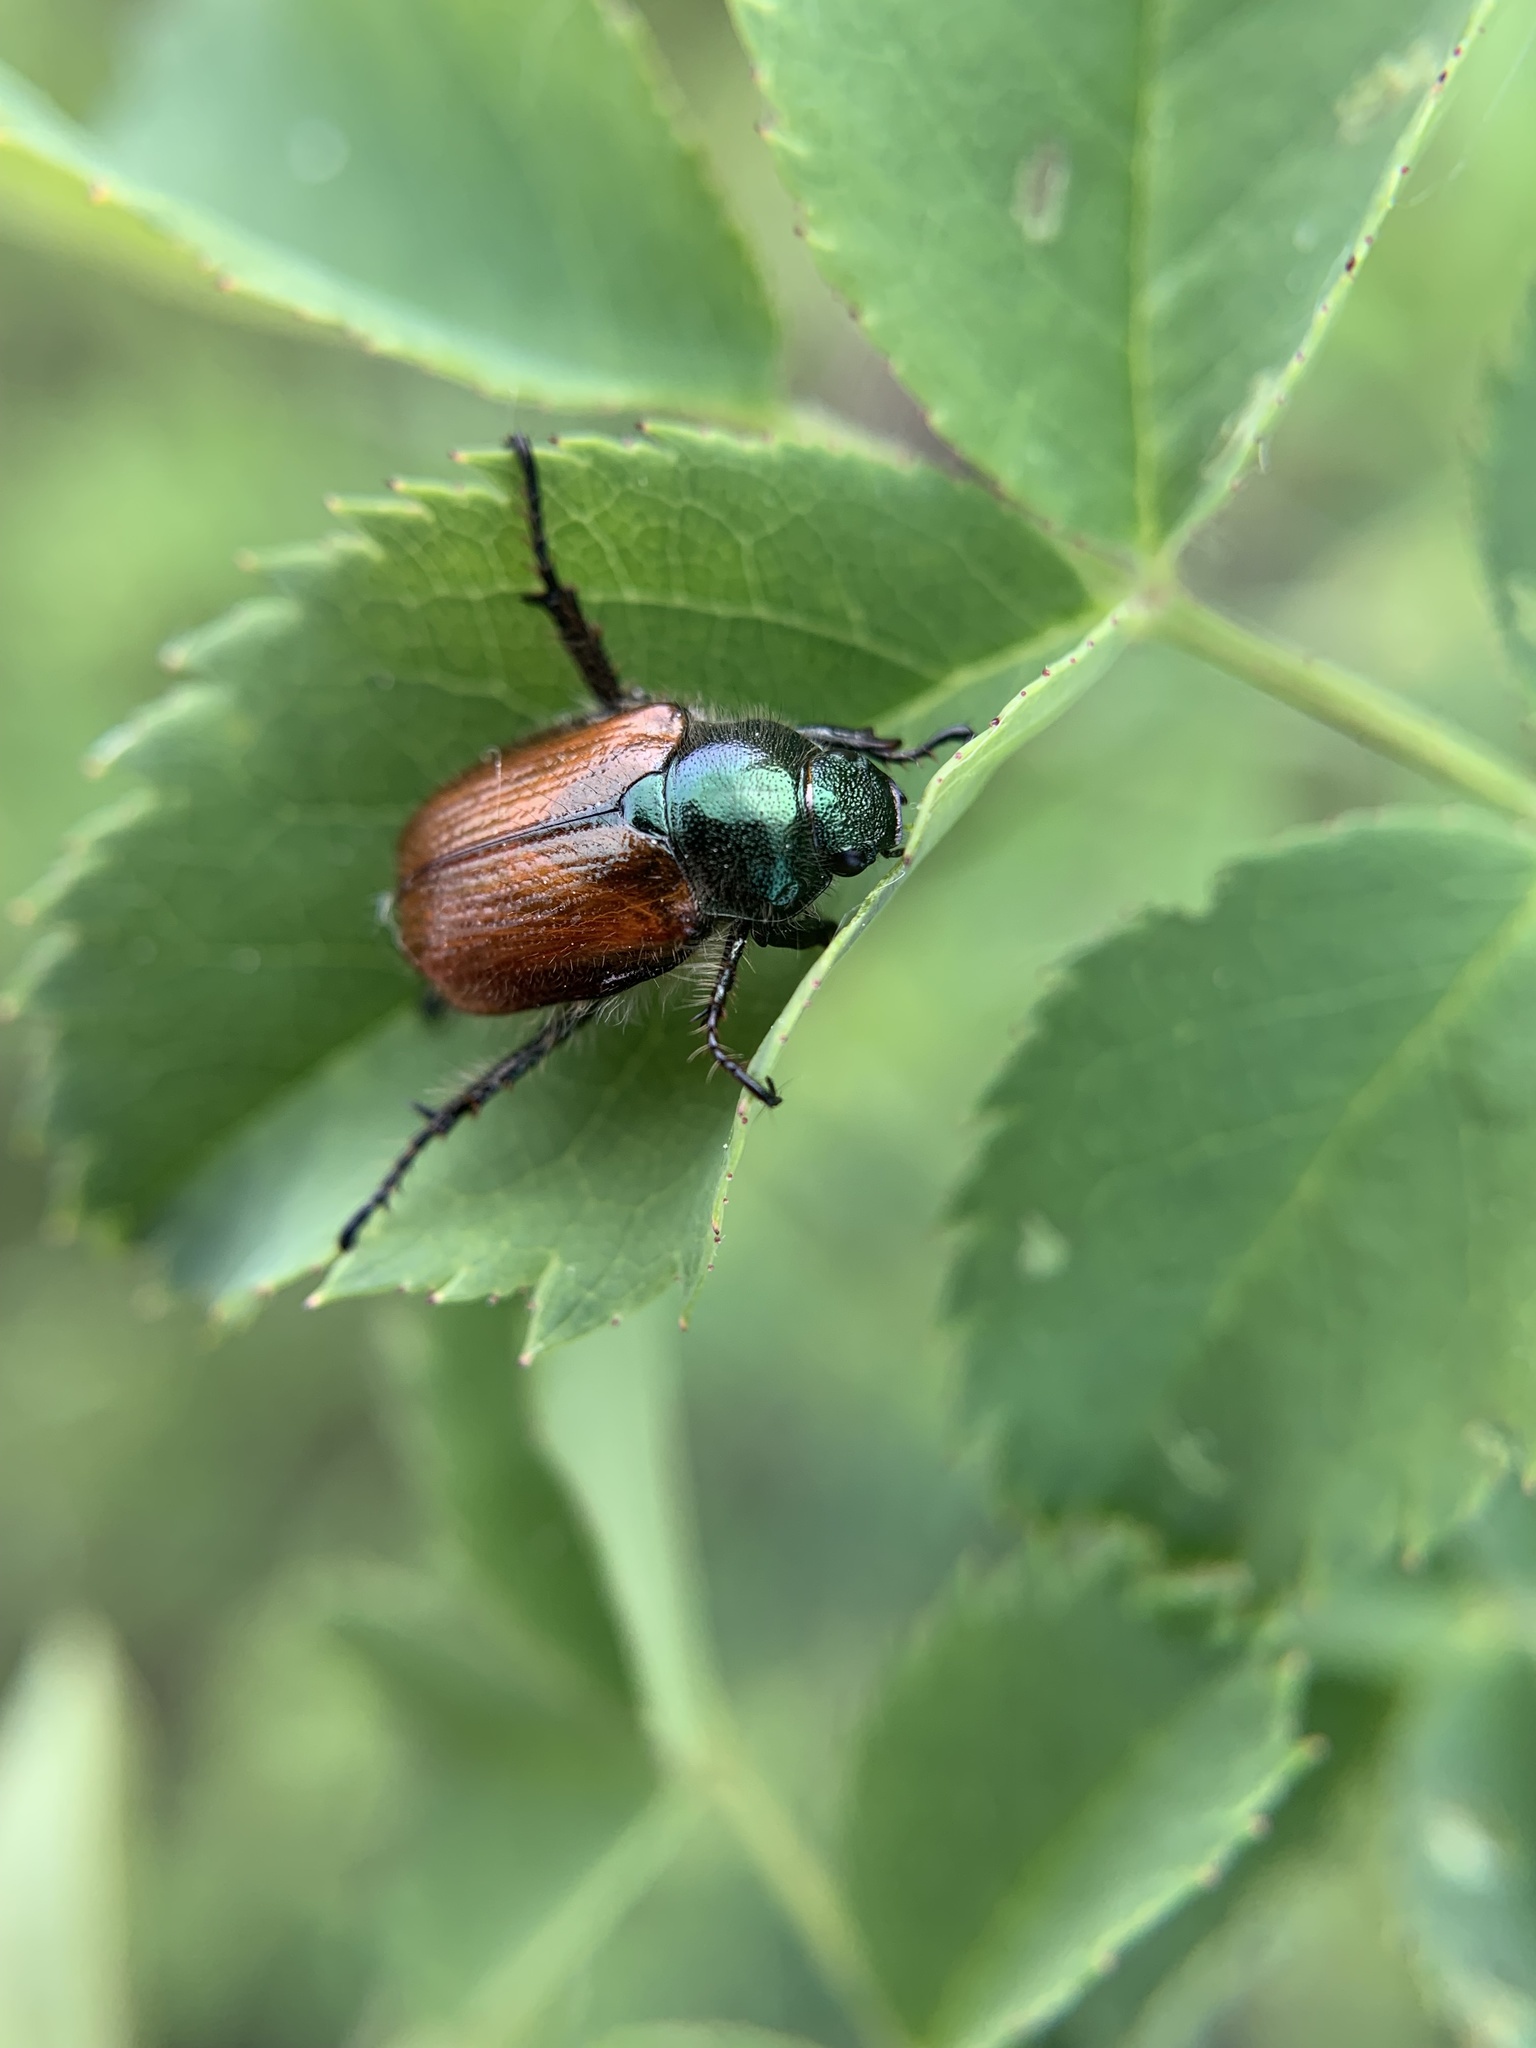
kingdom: Animalia
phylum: Arthropoda
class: Insecta
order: Coleoptera
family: Scarabaeidae
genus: Phyllopertha
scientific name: Phyllopertha horticola
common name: Garden chafer
